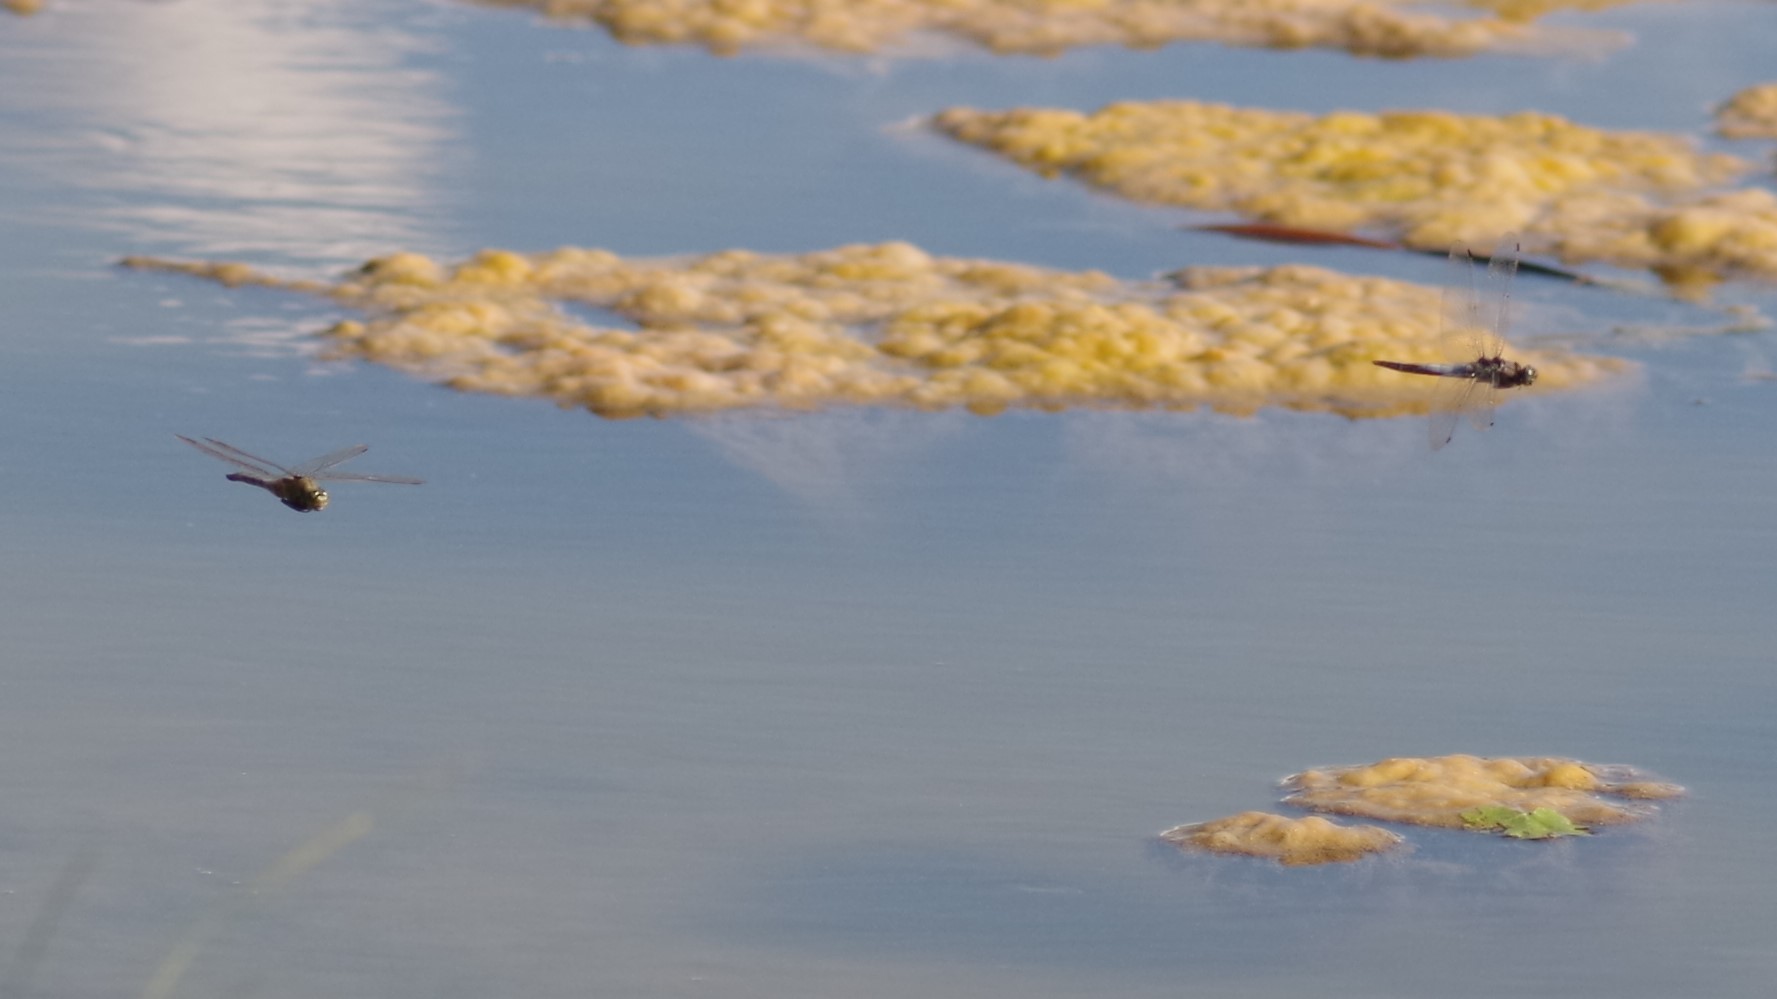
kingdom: Animalia
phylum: Arthropoda
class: Insecta
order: Odonata
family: Libellulidae
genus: Orthetrum
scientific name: Orthetrum cancellatum
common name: Black-tailed skimmer
